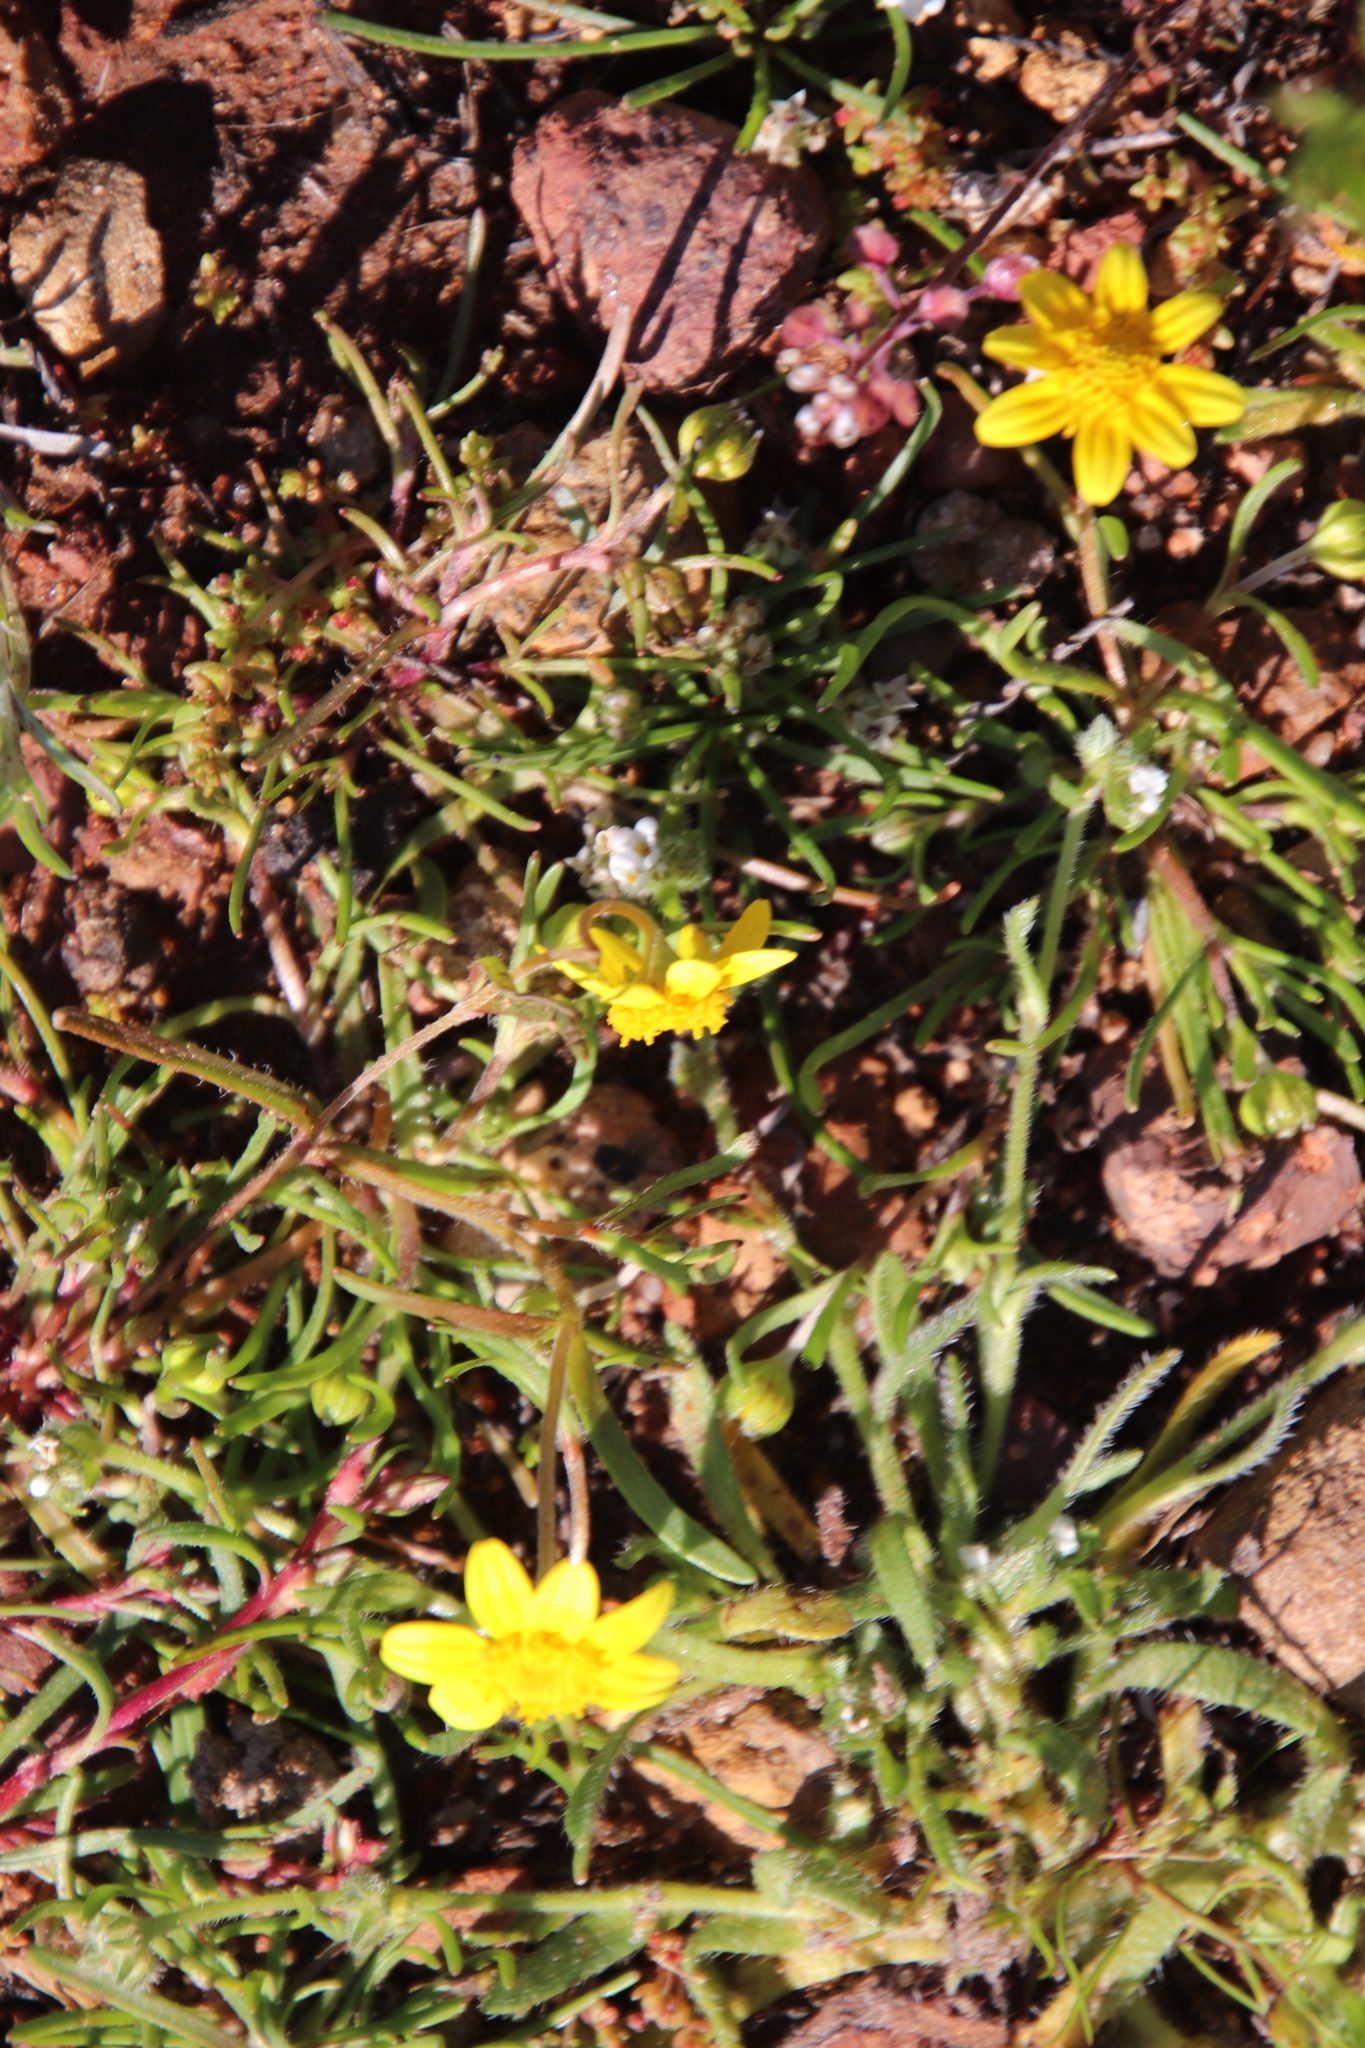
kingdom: Plantae
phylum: Tracheophyta
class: Magnoliopsida
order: Asterales
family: Asteraceae
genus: Lasthenia
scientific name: Lasthenia gracilis
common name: Common goldfields
